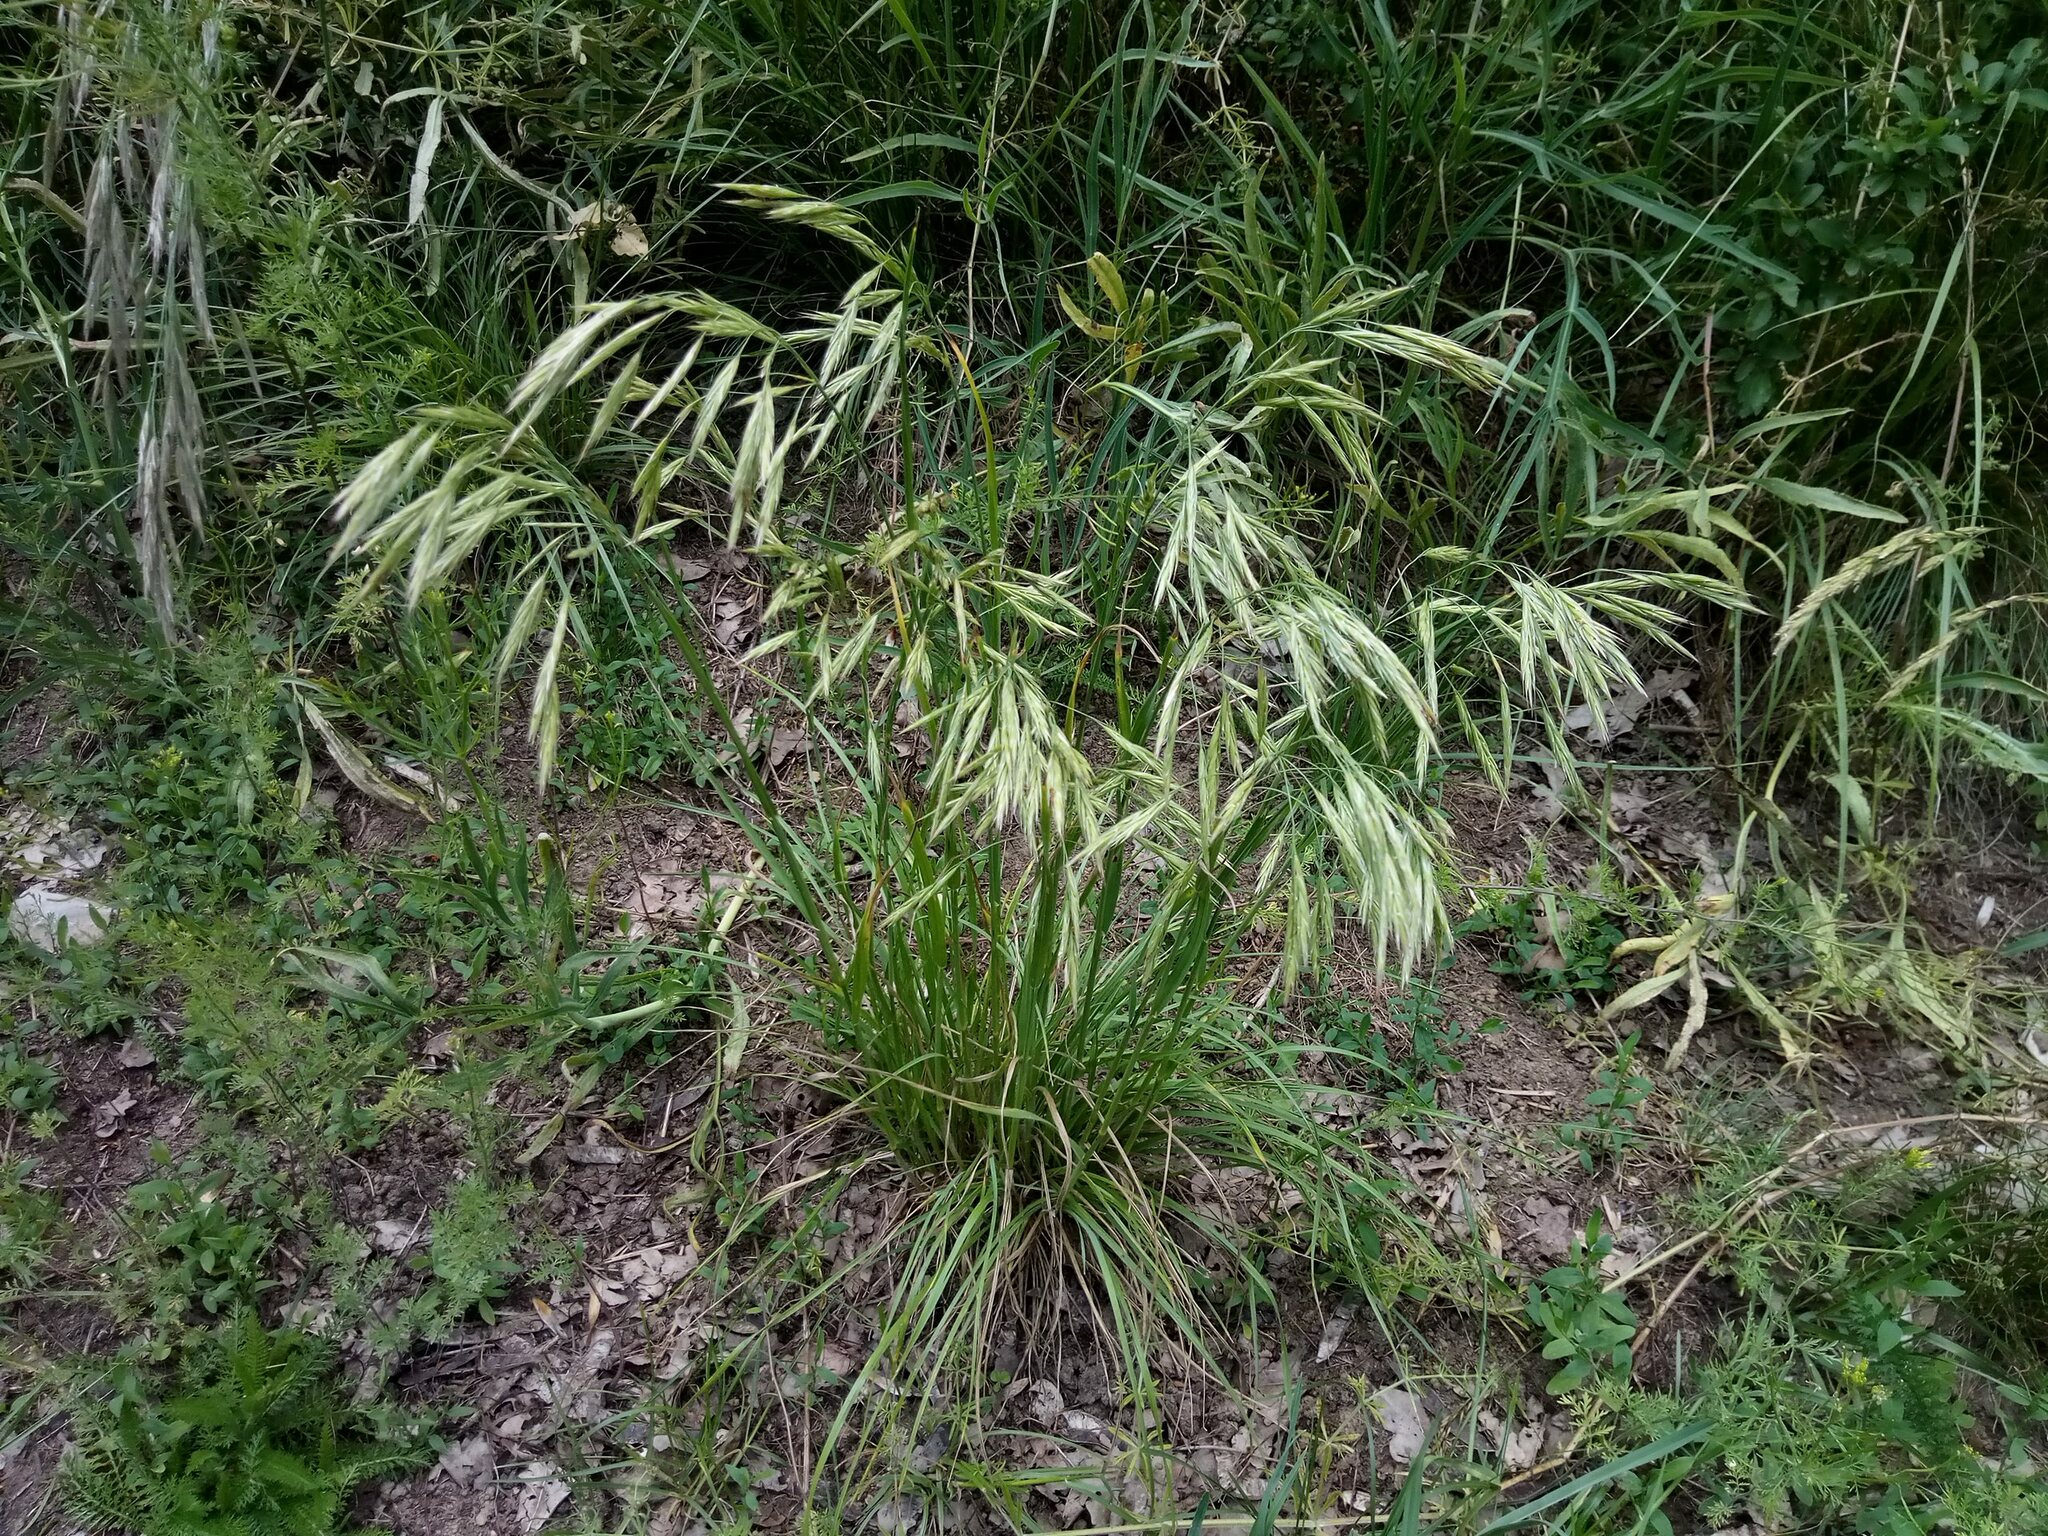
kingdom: Plantae
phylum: Tracheophyta
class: Liliopsida
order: Poales
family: Poaceae
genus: Bromus
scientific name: Bromus erectus
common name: Erect brome
